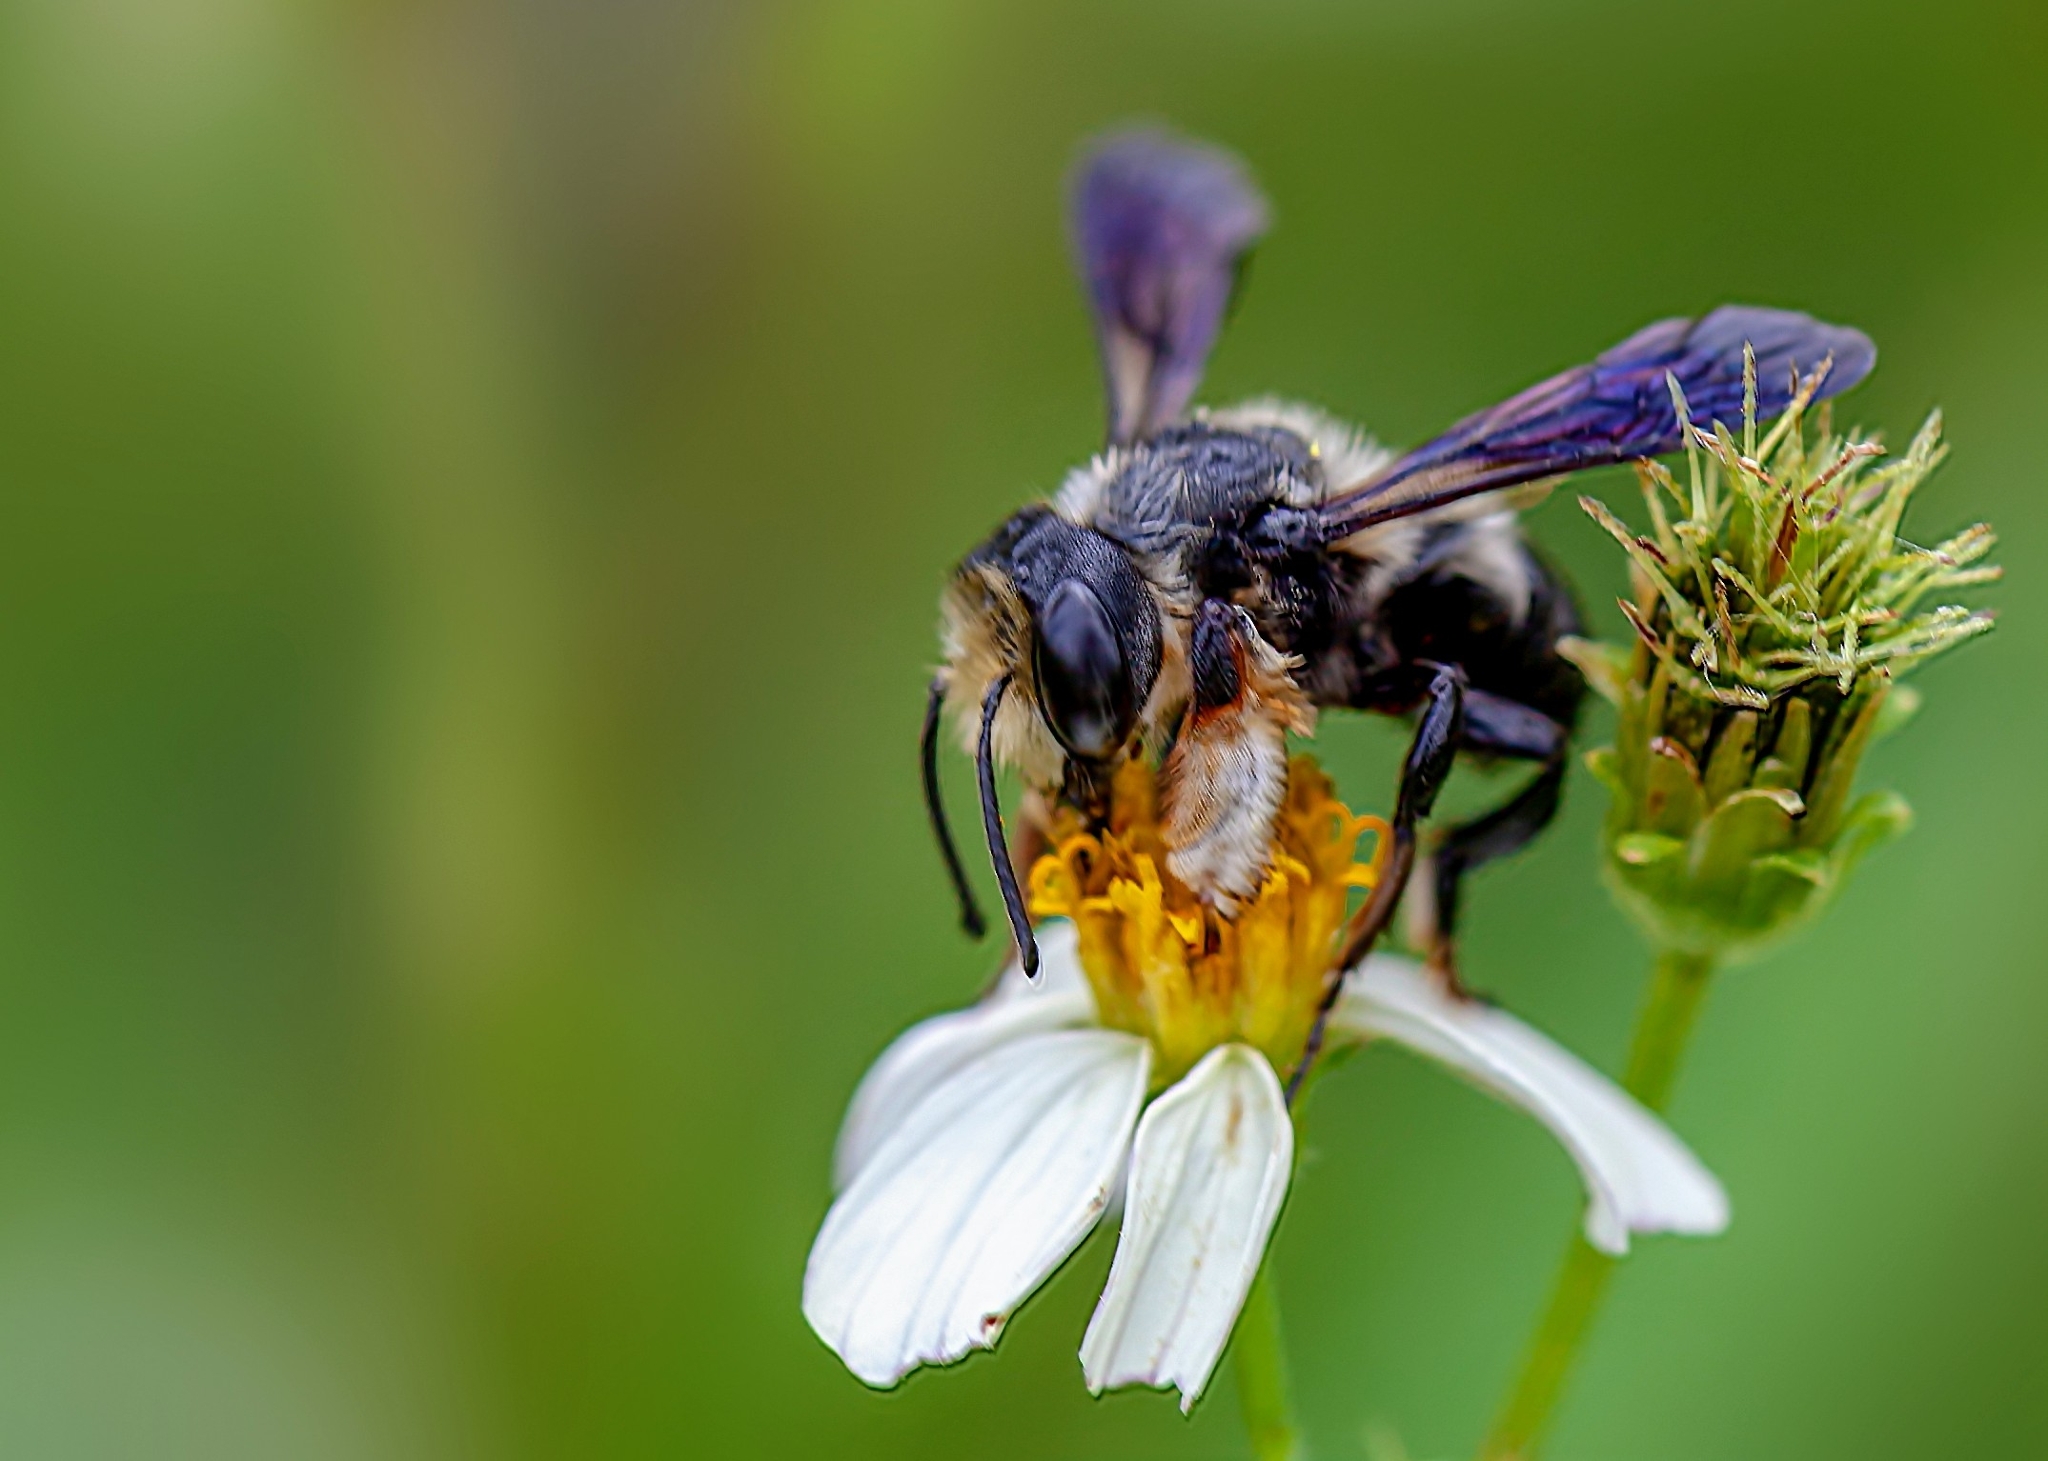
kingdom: Animalia
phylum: Arthropoda
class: Insecta
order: Hymenoptera
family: Megachilidae
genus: Megachile
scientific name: Megachile xylocopoides
